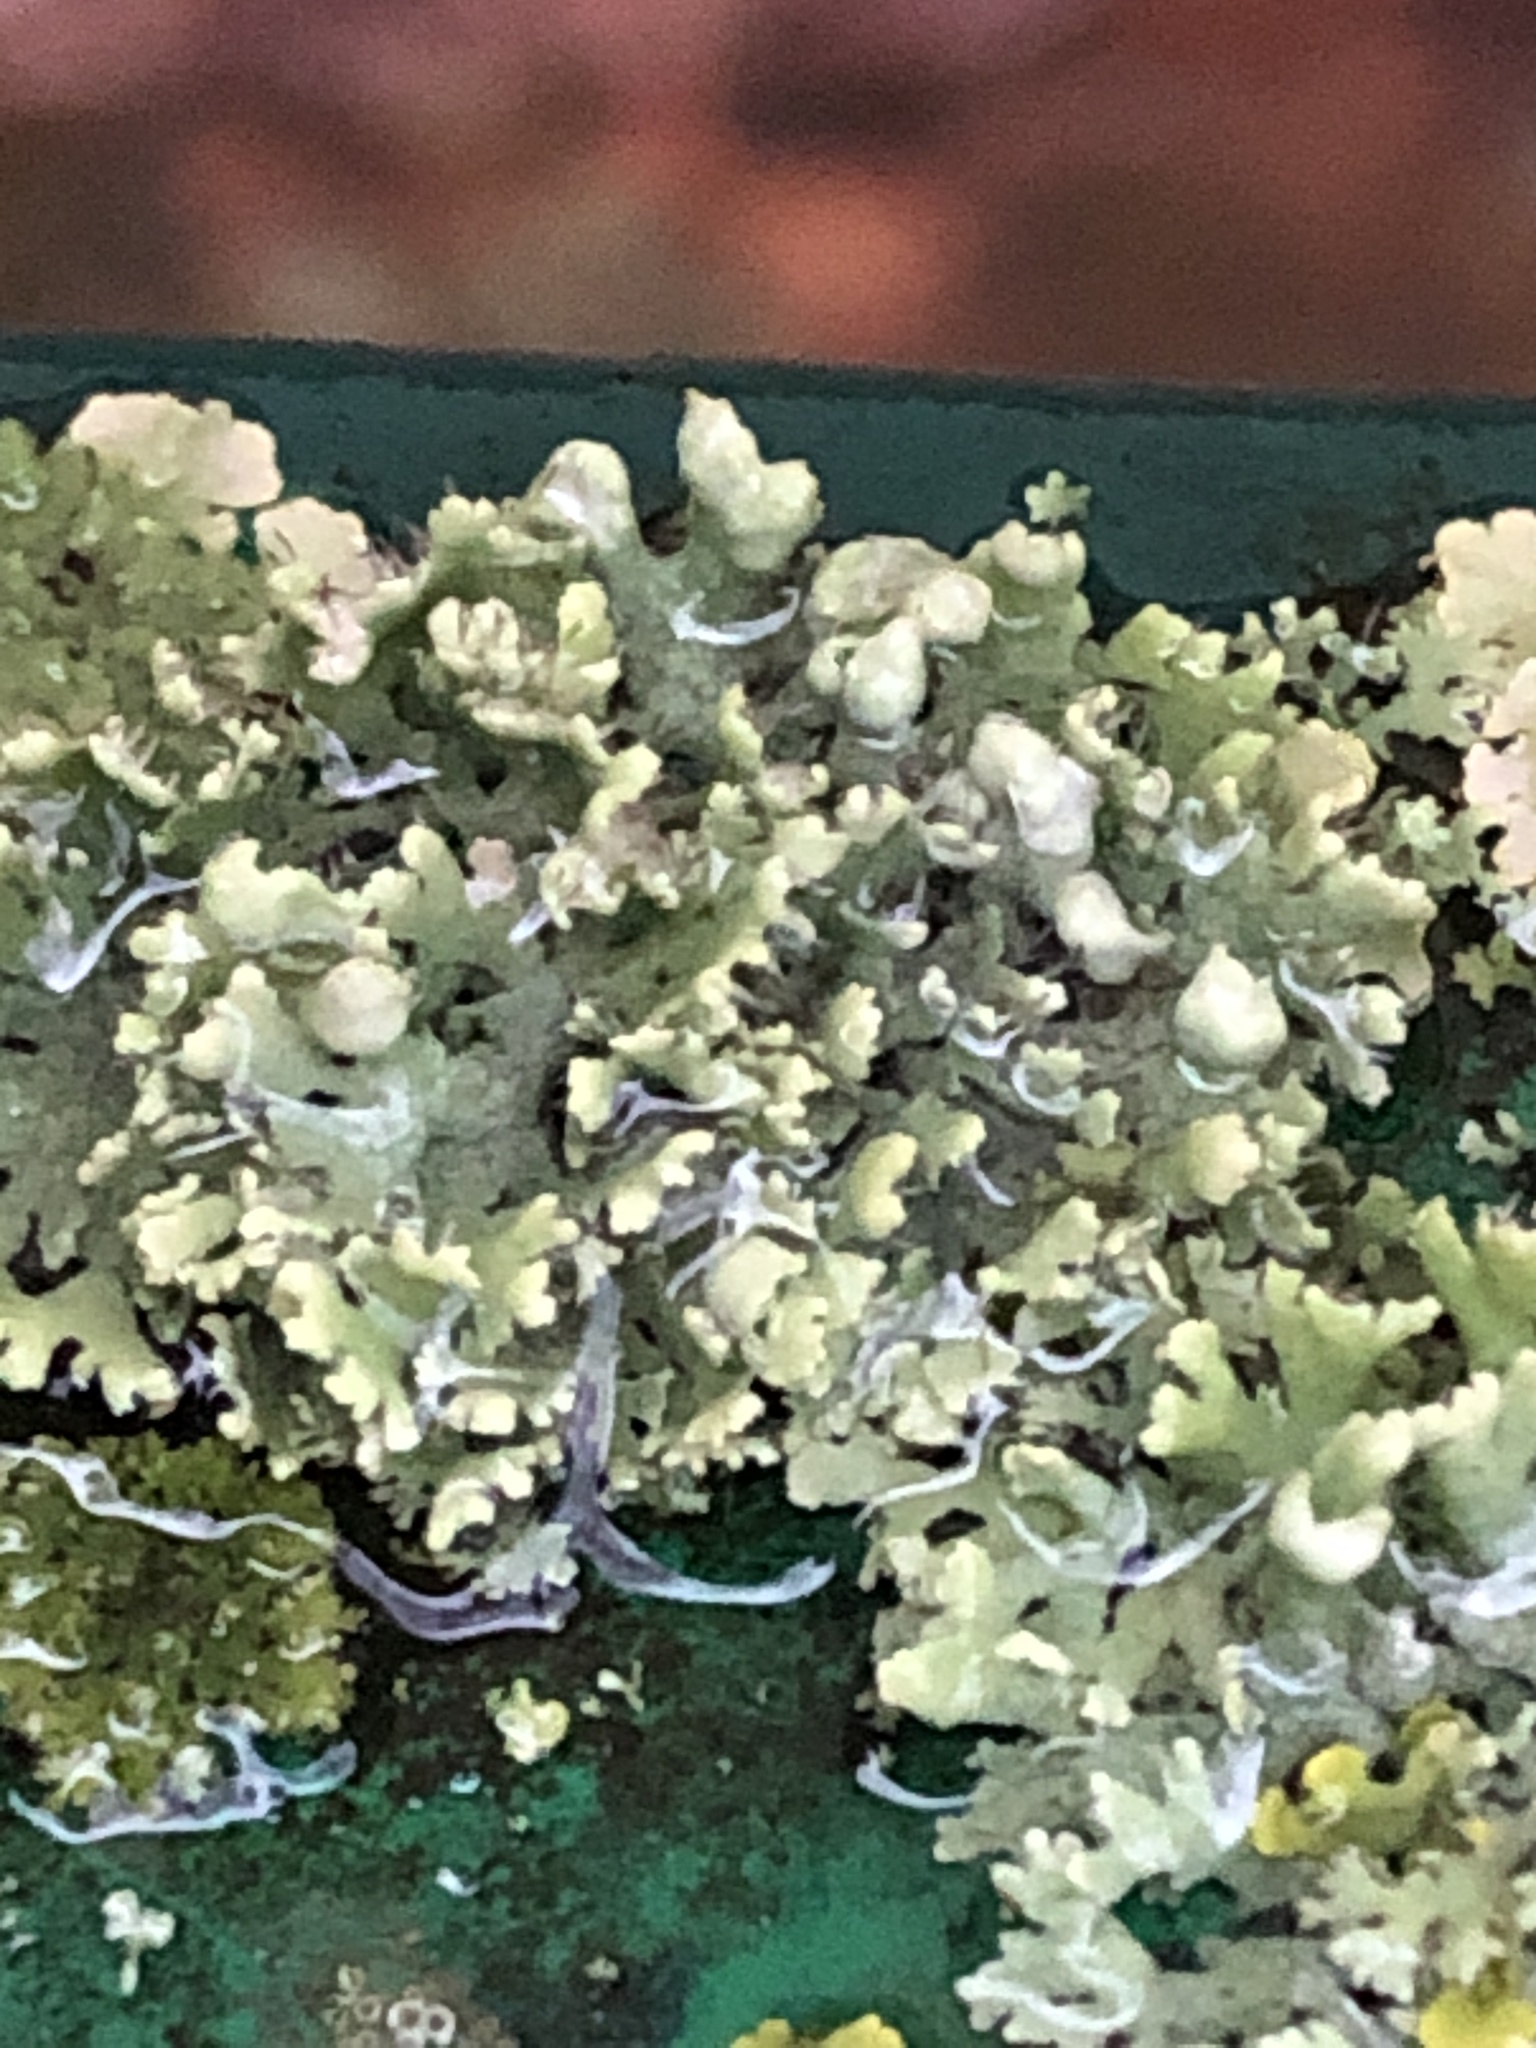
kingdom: Fungi
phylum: Ascomycota
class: Lecanoromycetes
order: Caliciales
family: Physciaceae
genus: Physcia
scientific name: Physcia adscendens
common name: Hooded rosette lichen
